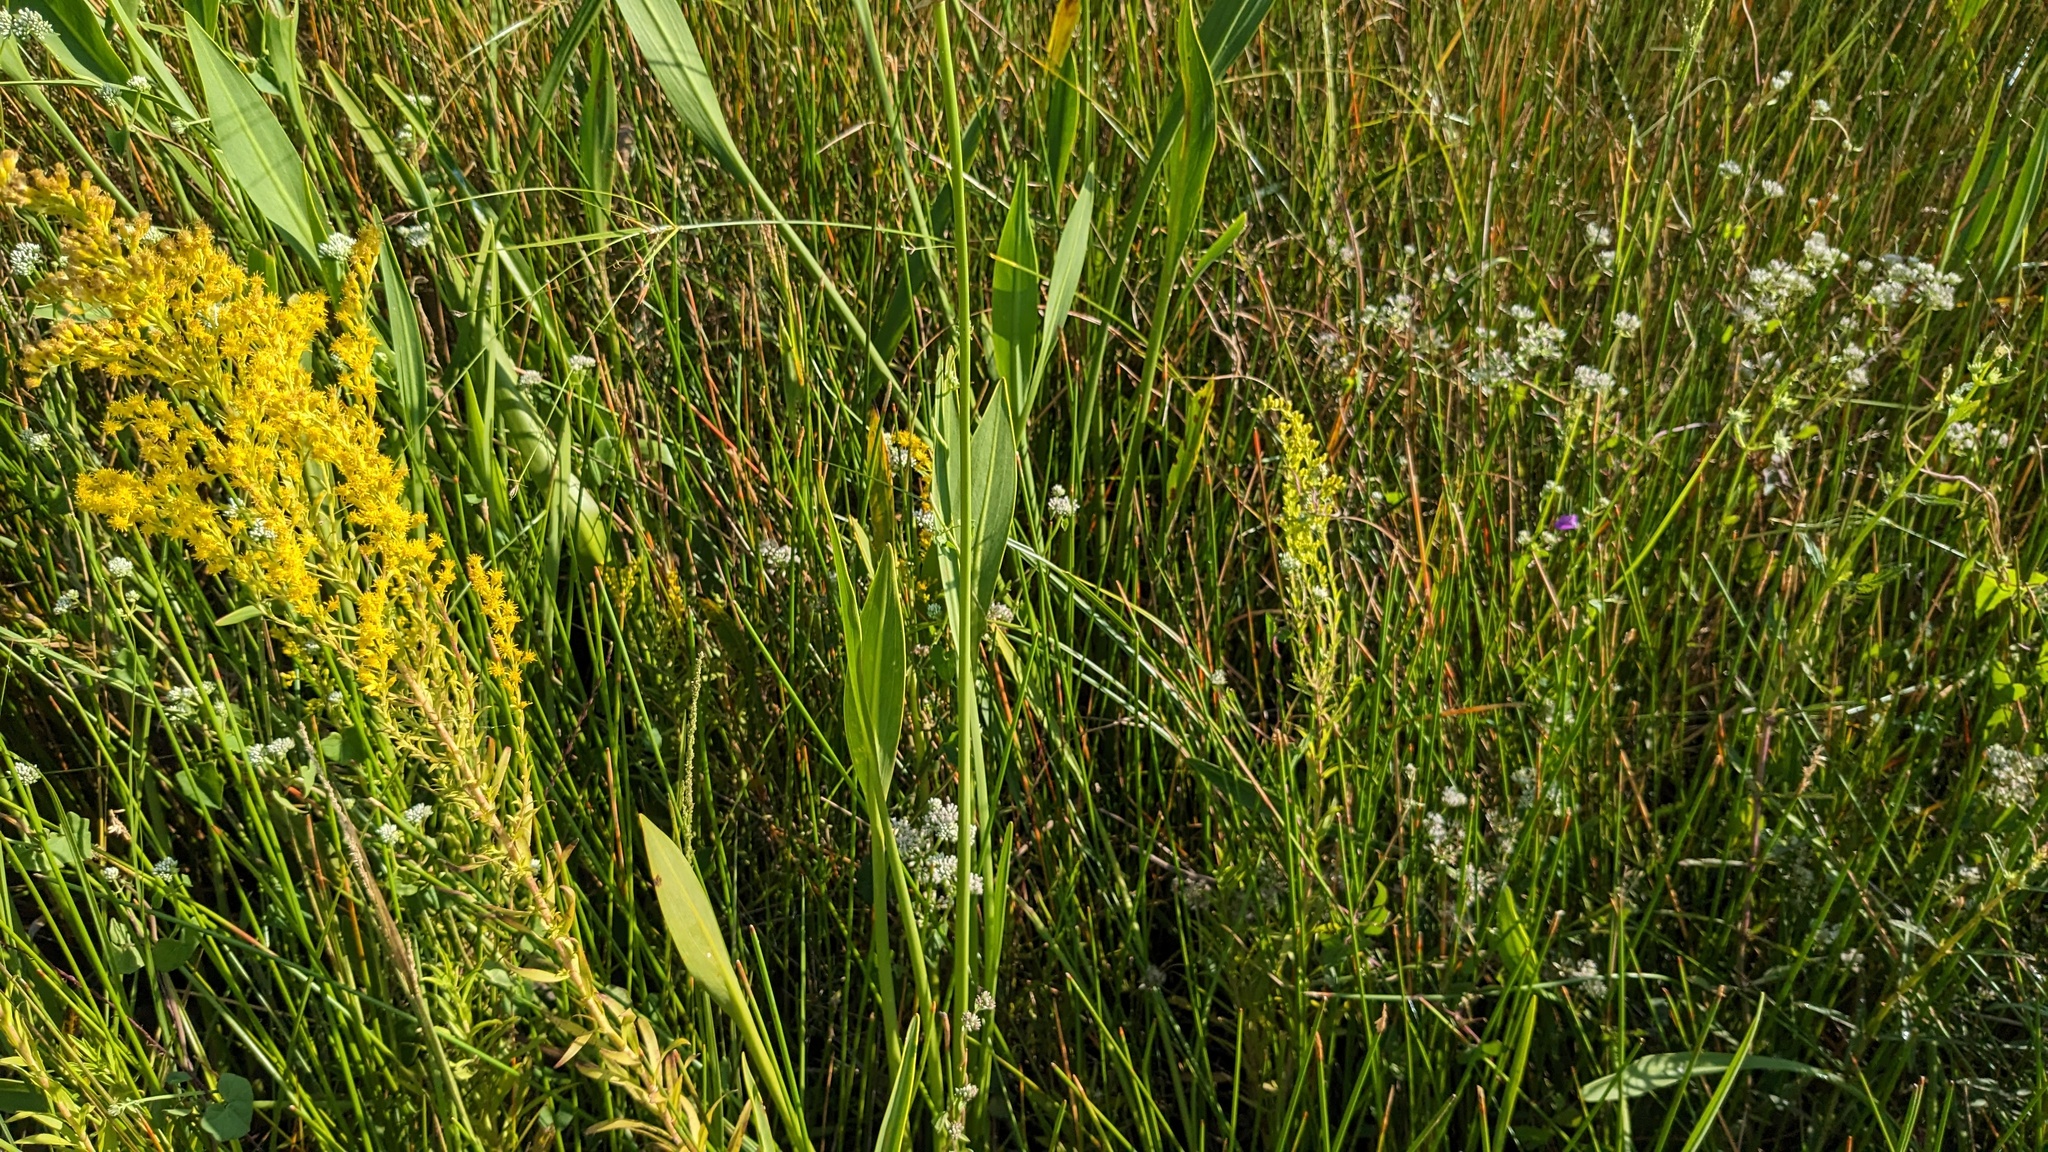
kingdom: Plantae
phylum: Tracheophyta
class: Liliopsida
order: Alismatales
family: Alismataceae
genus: Sagittaria
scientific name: Sagittaria lancifolia
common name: Lance-leaf arrowhead
